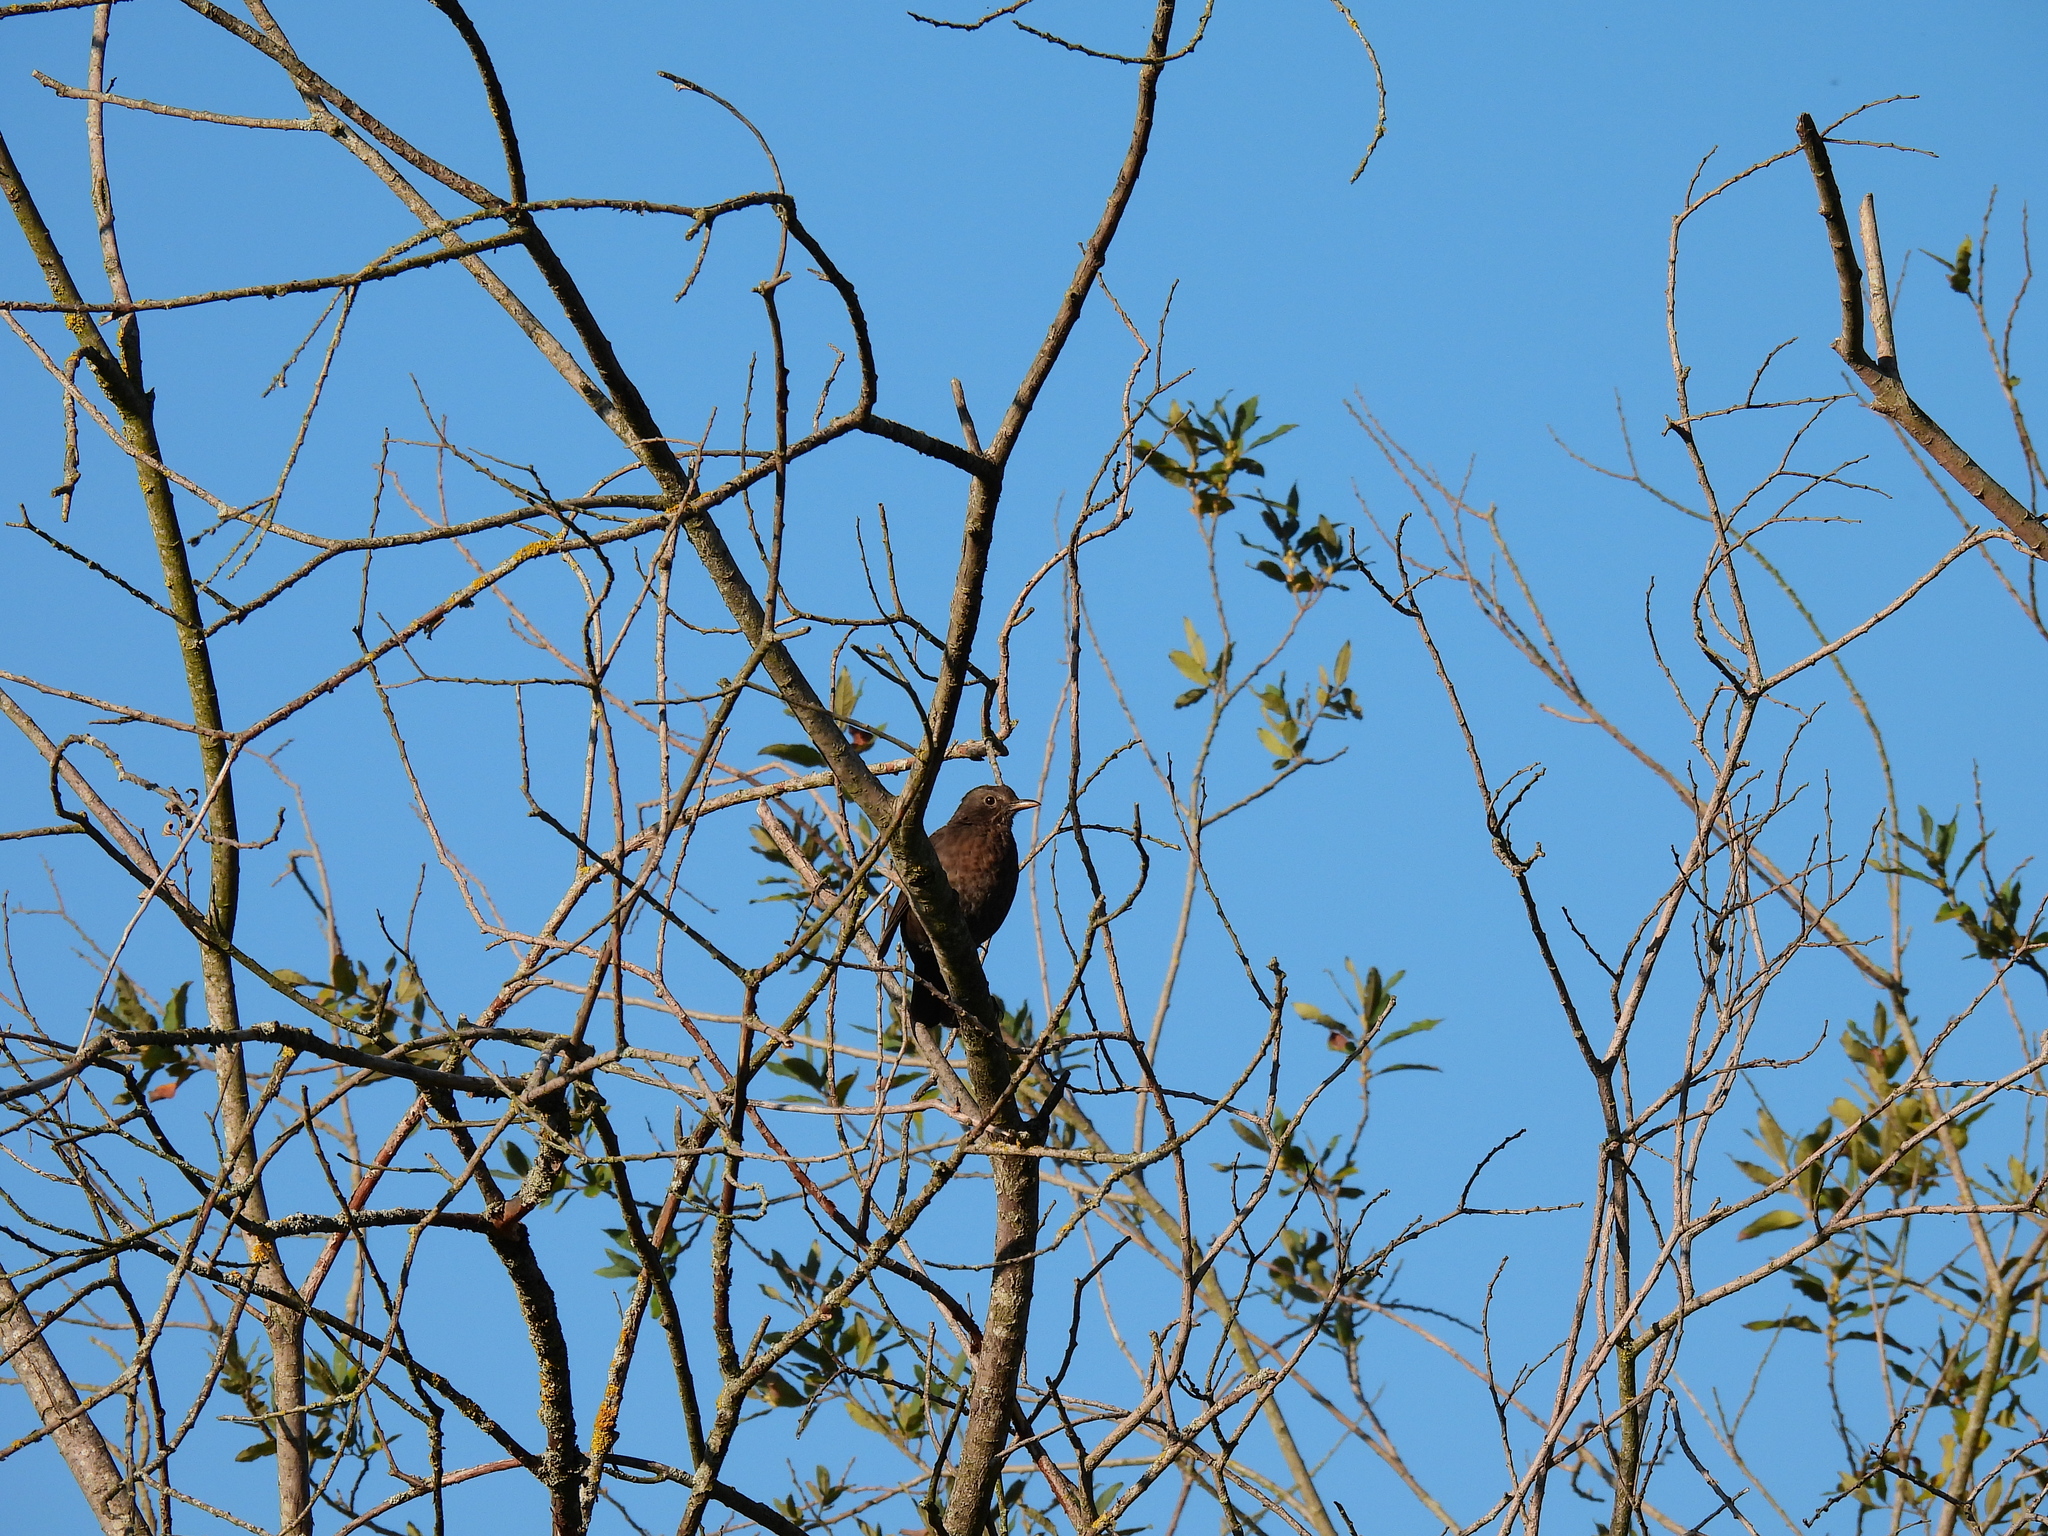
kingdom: Animalia
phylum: Chordata
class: Aves
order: Passeriformes
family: Turdidae
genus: Turdus
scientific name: Turdus merula
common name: Common blackbird
